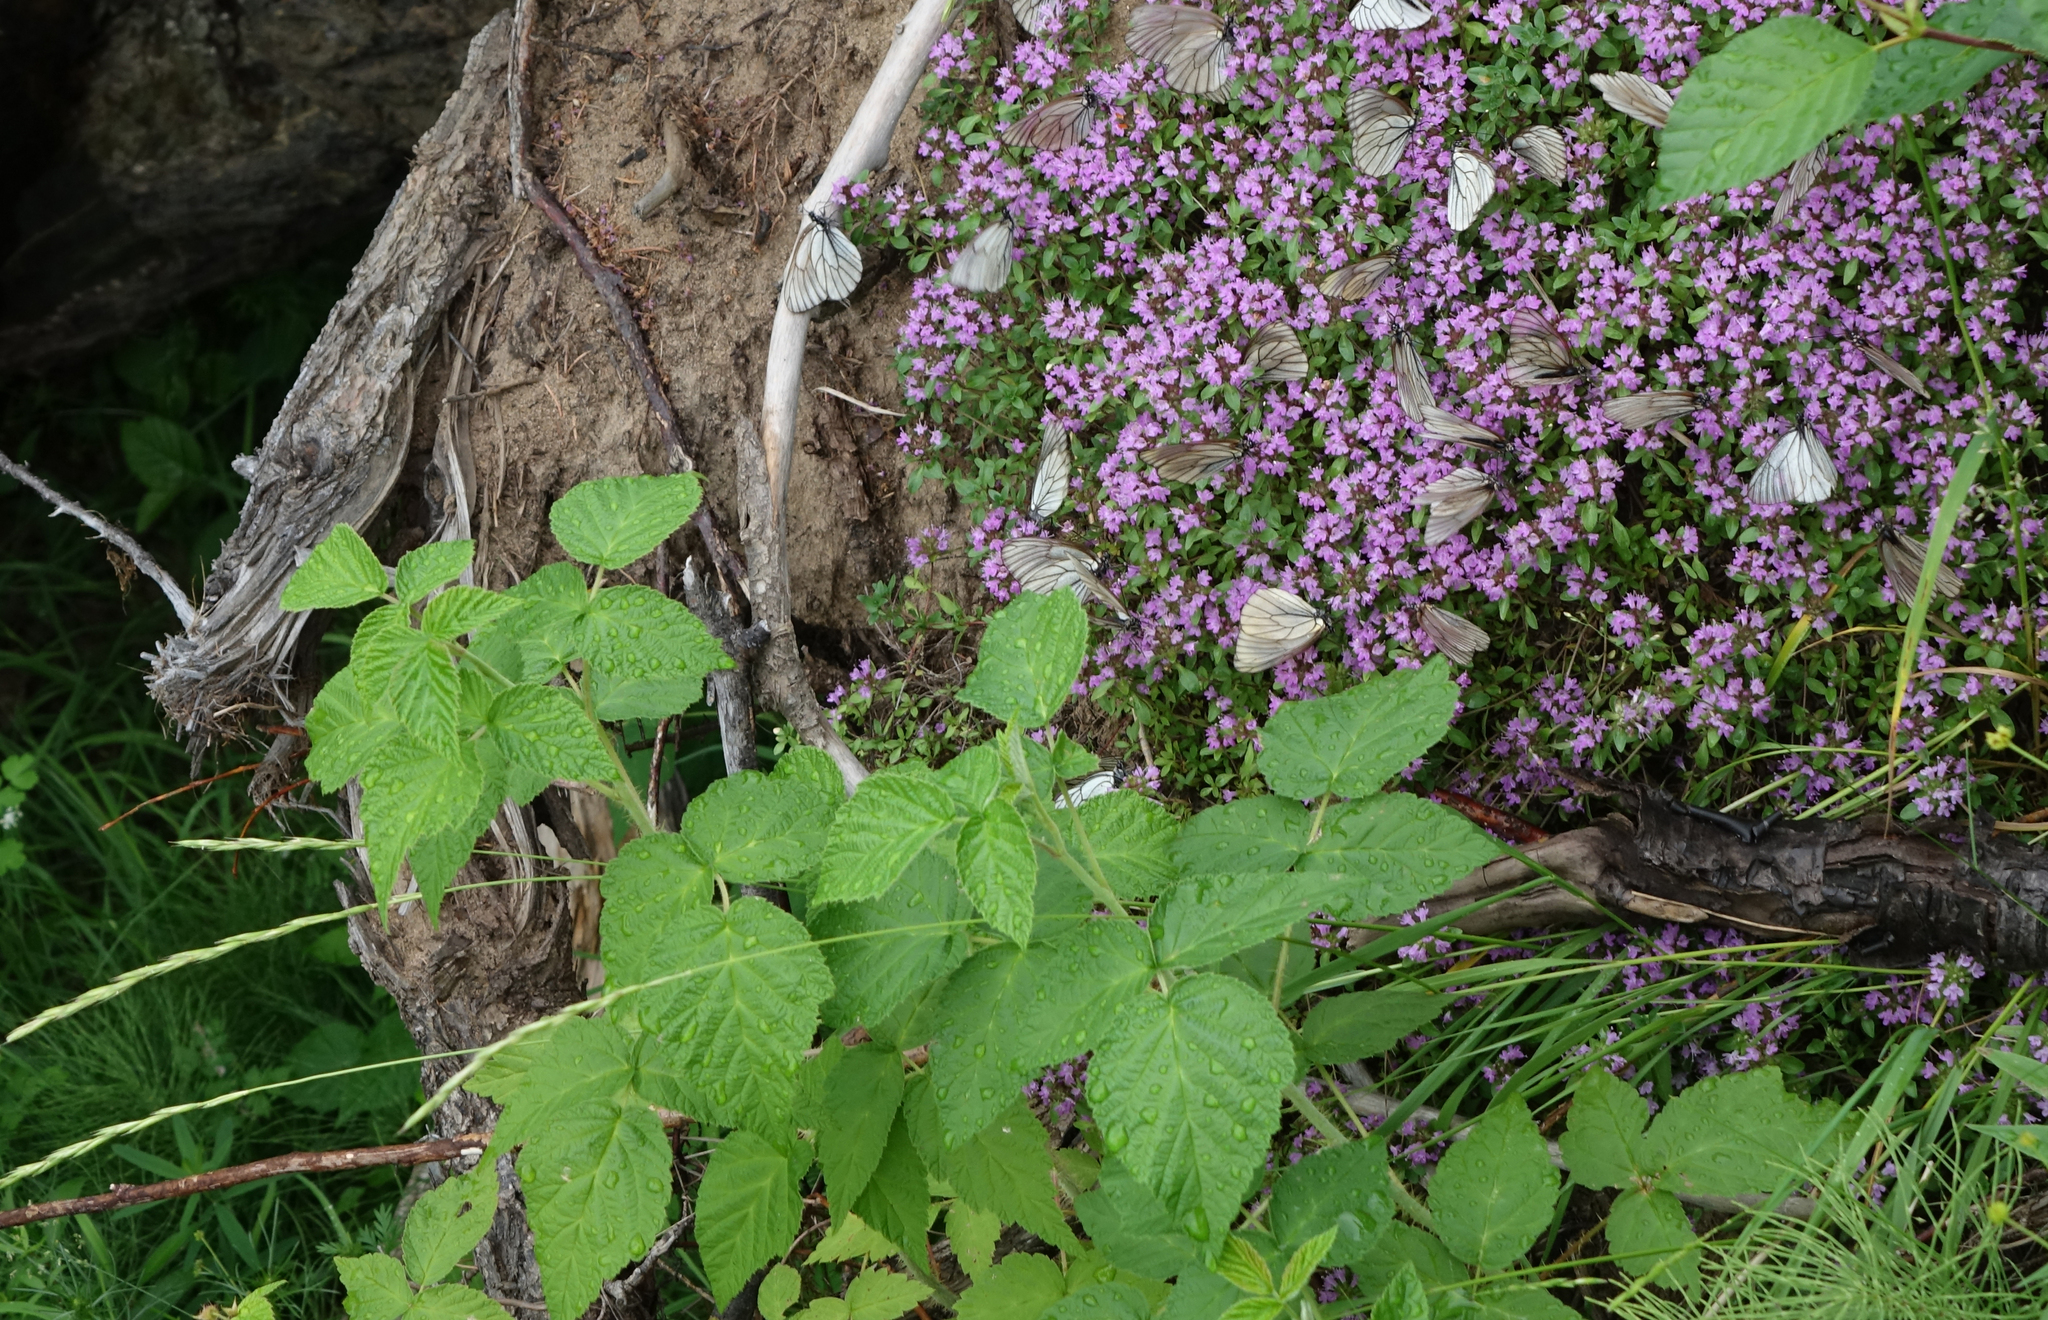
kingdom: Plantae
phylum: Tracheophyta
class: Magnoliopsida
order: Rosales
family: Rosaceae
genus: Rubus
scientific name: Rubus sachalinensis
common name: Red raspberry
